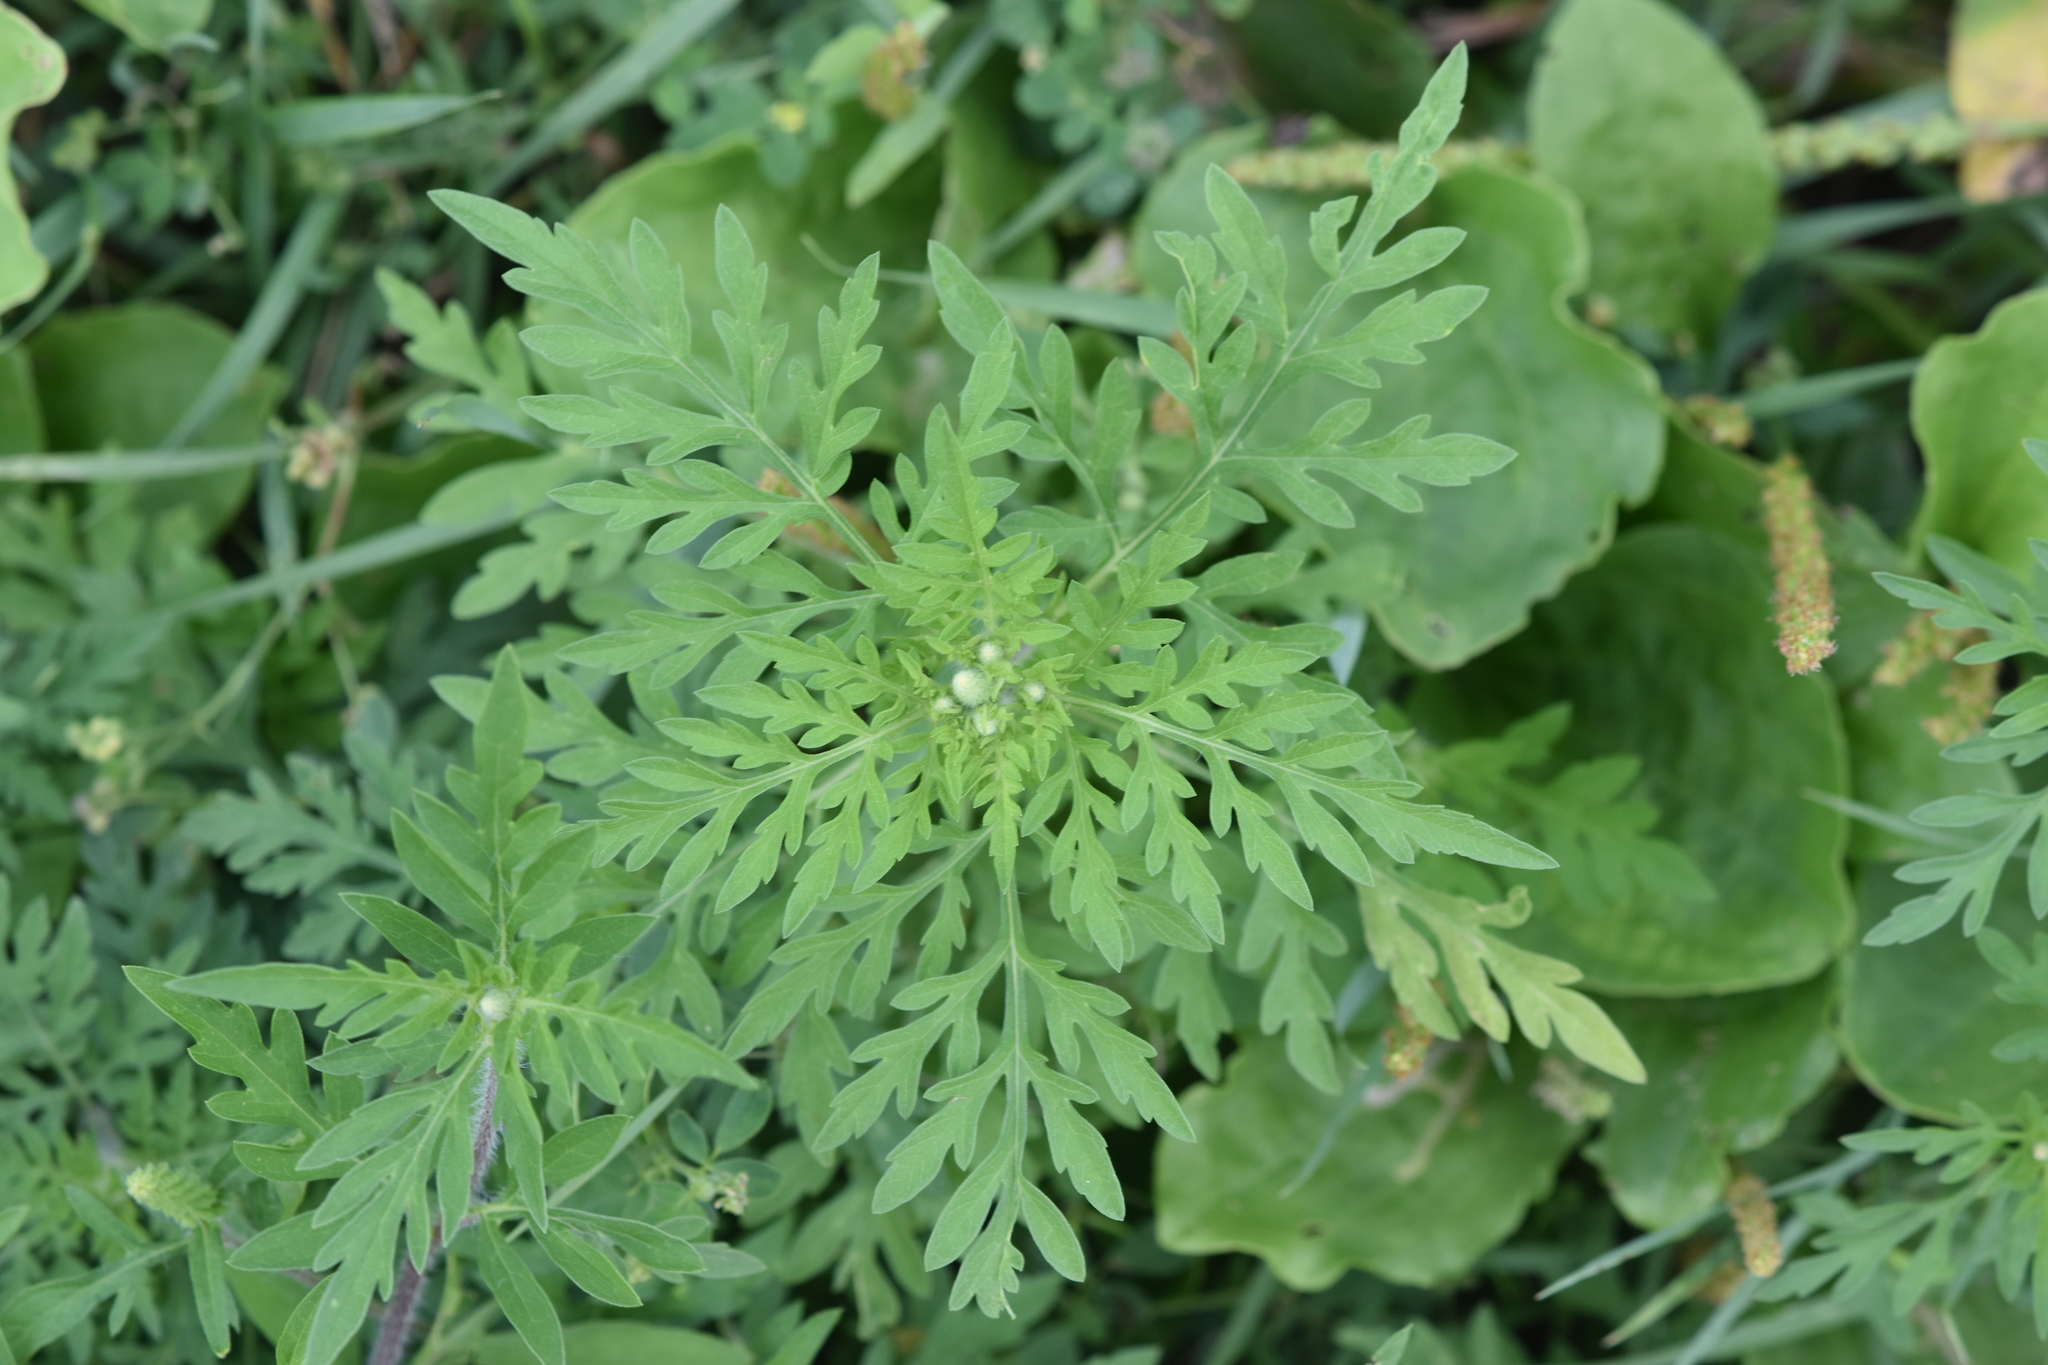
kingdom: Plantae
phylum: Tracheophyta
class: Magnoliopsida
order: Asterales
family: Asteraceae
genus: Ambrosia
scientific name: Ambrosia artemisiifolia
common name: Annual ragweed
